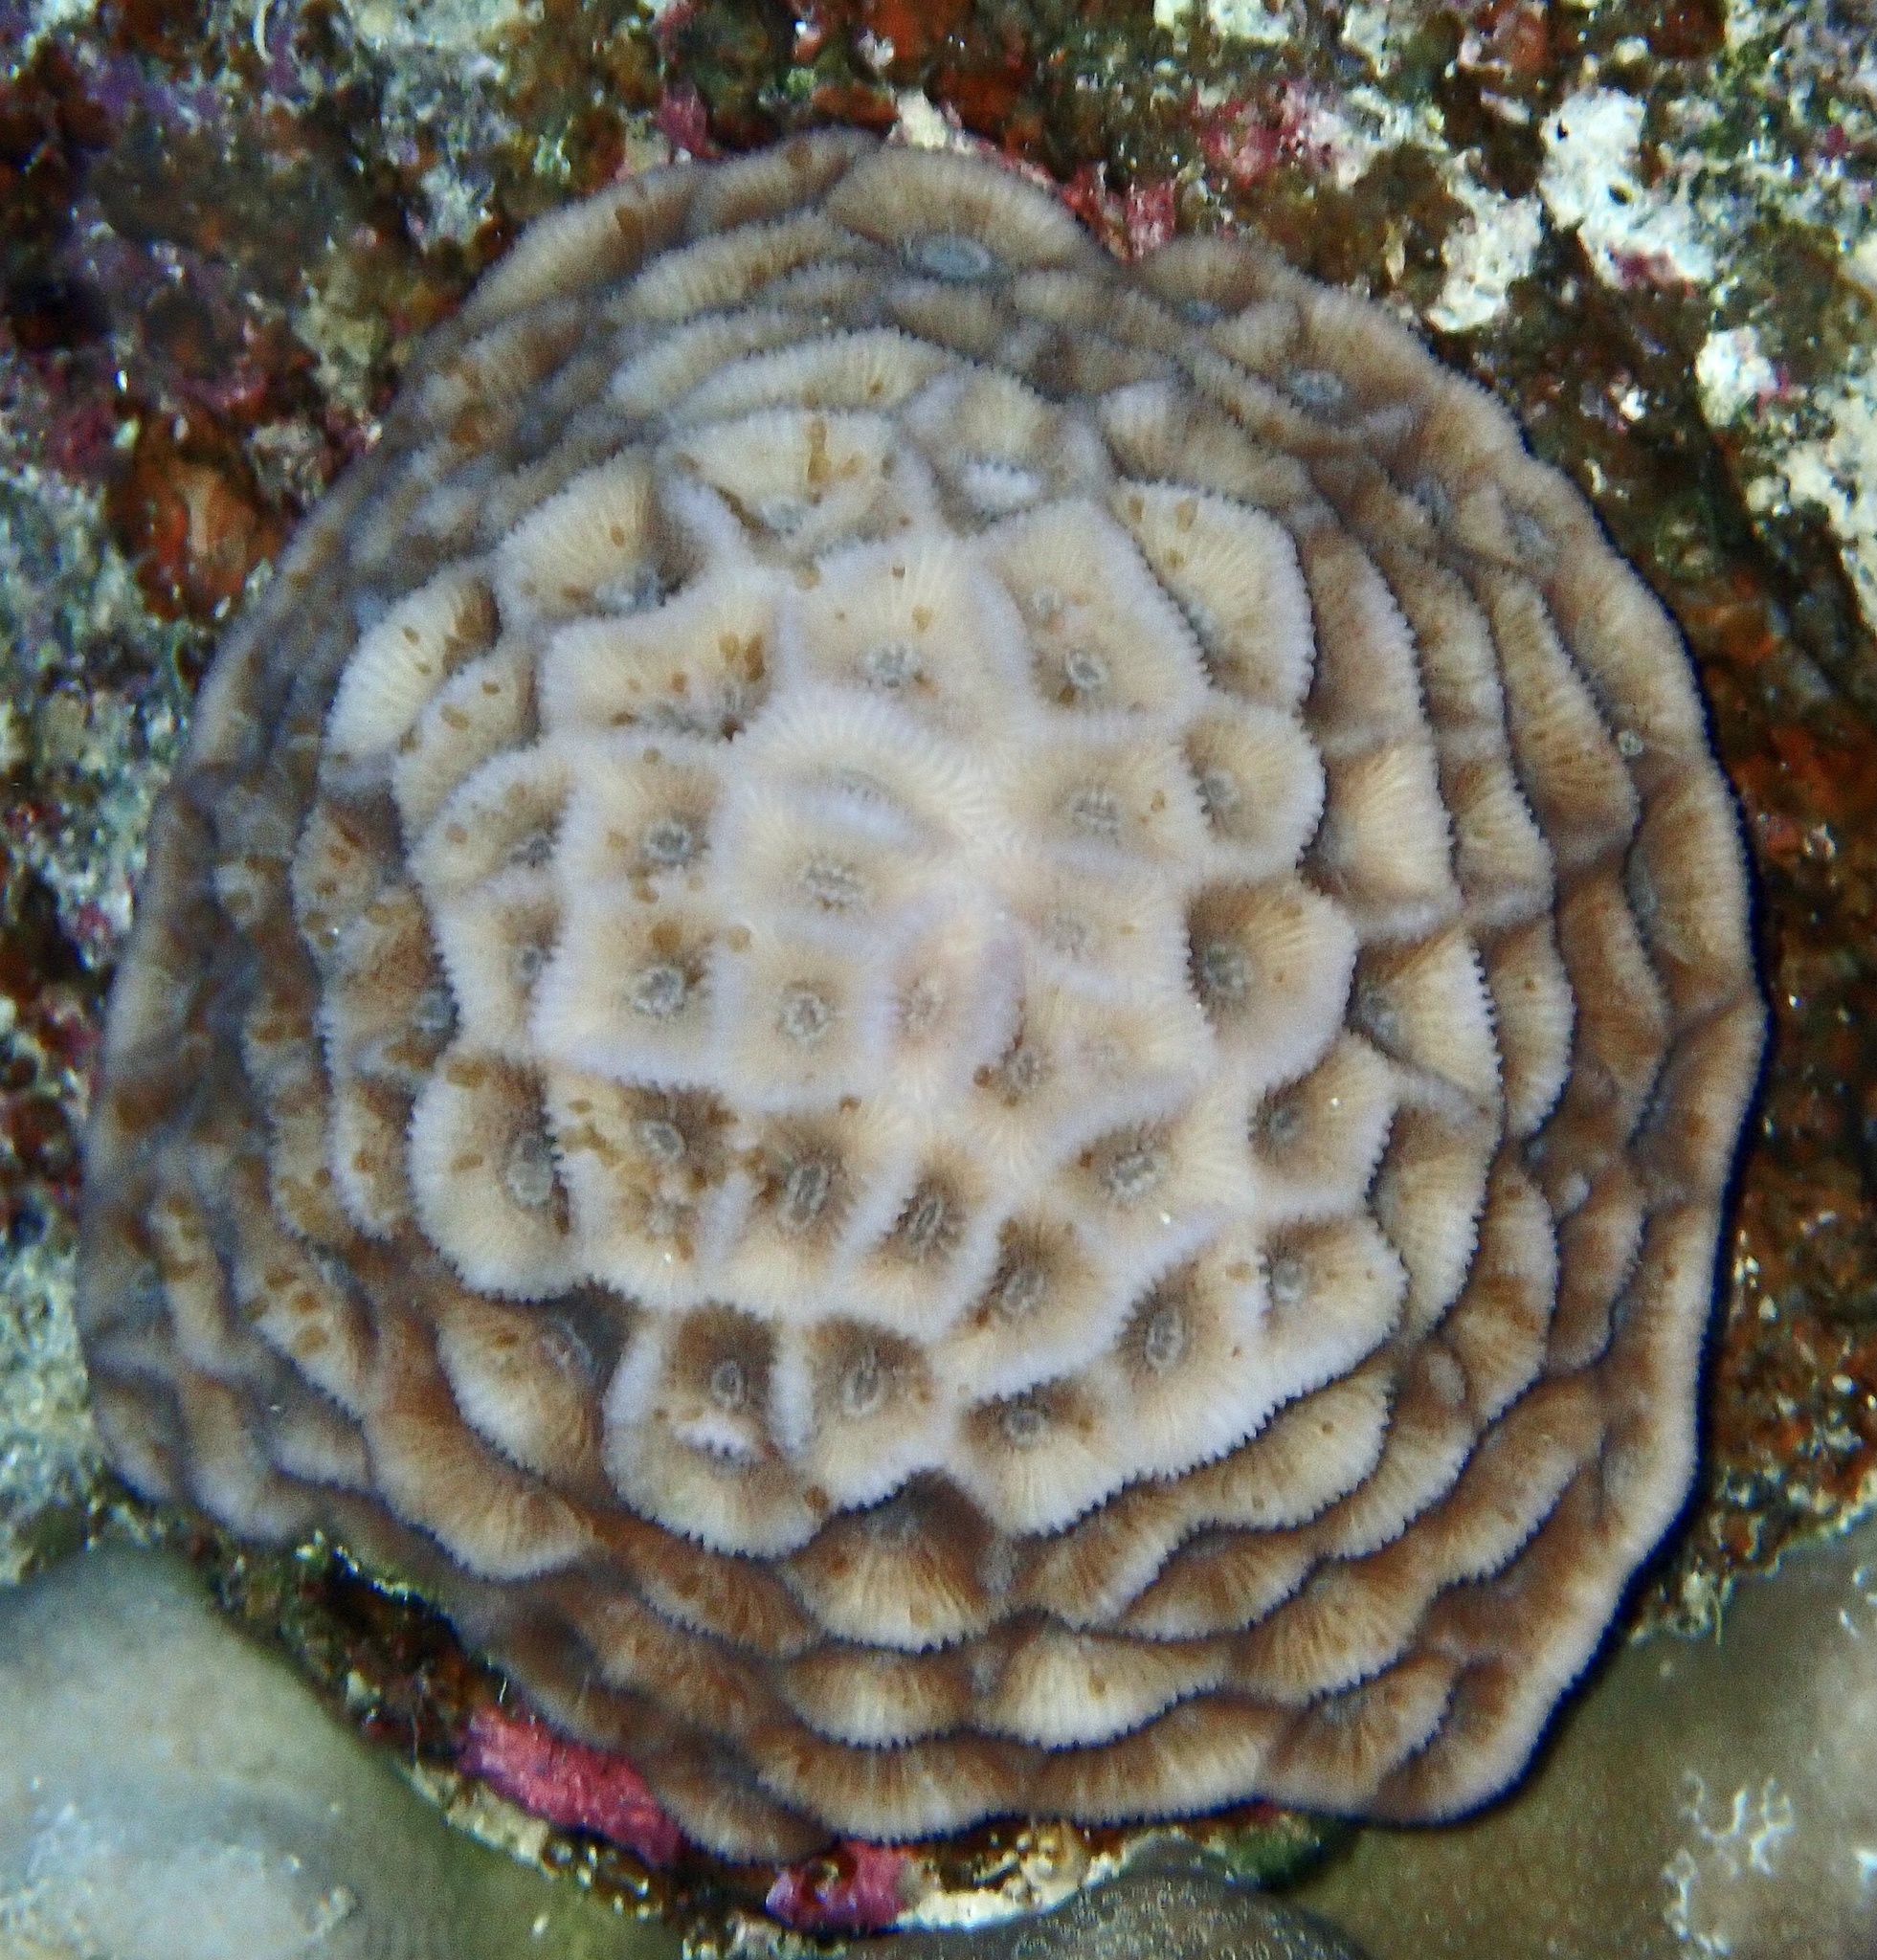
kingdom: Animalia
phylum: Cnidaria
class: Anthozoa
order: Scleractinia
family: Merulinidae
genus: Paramontastraea
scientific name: Paramontastraea peresi
